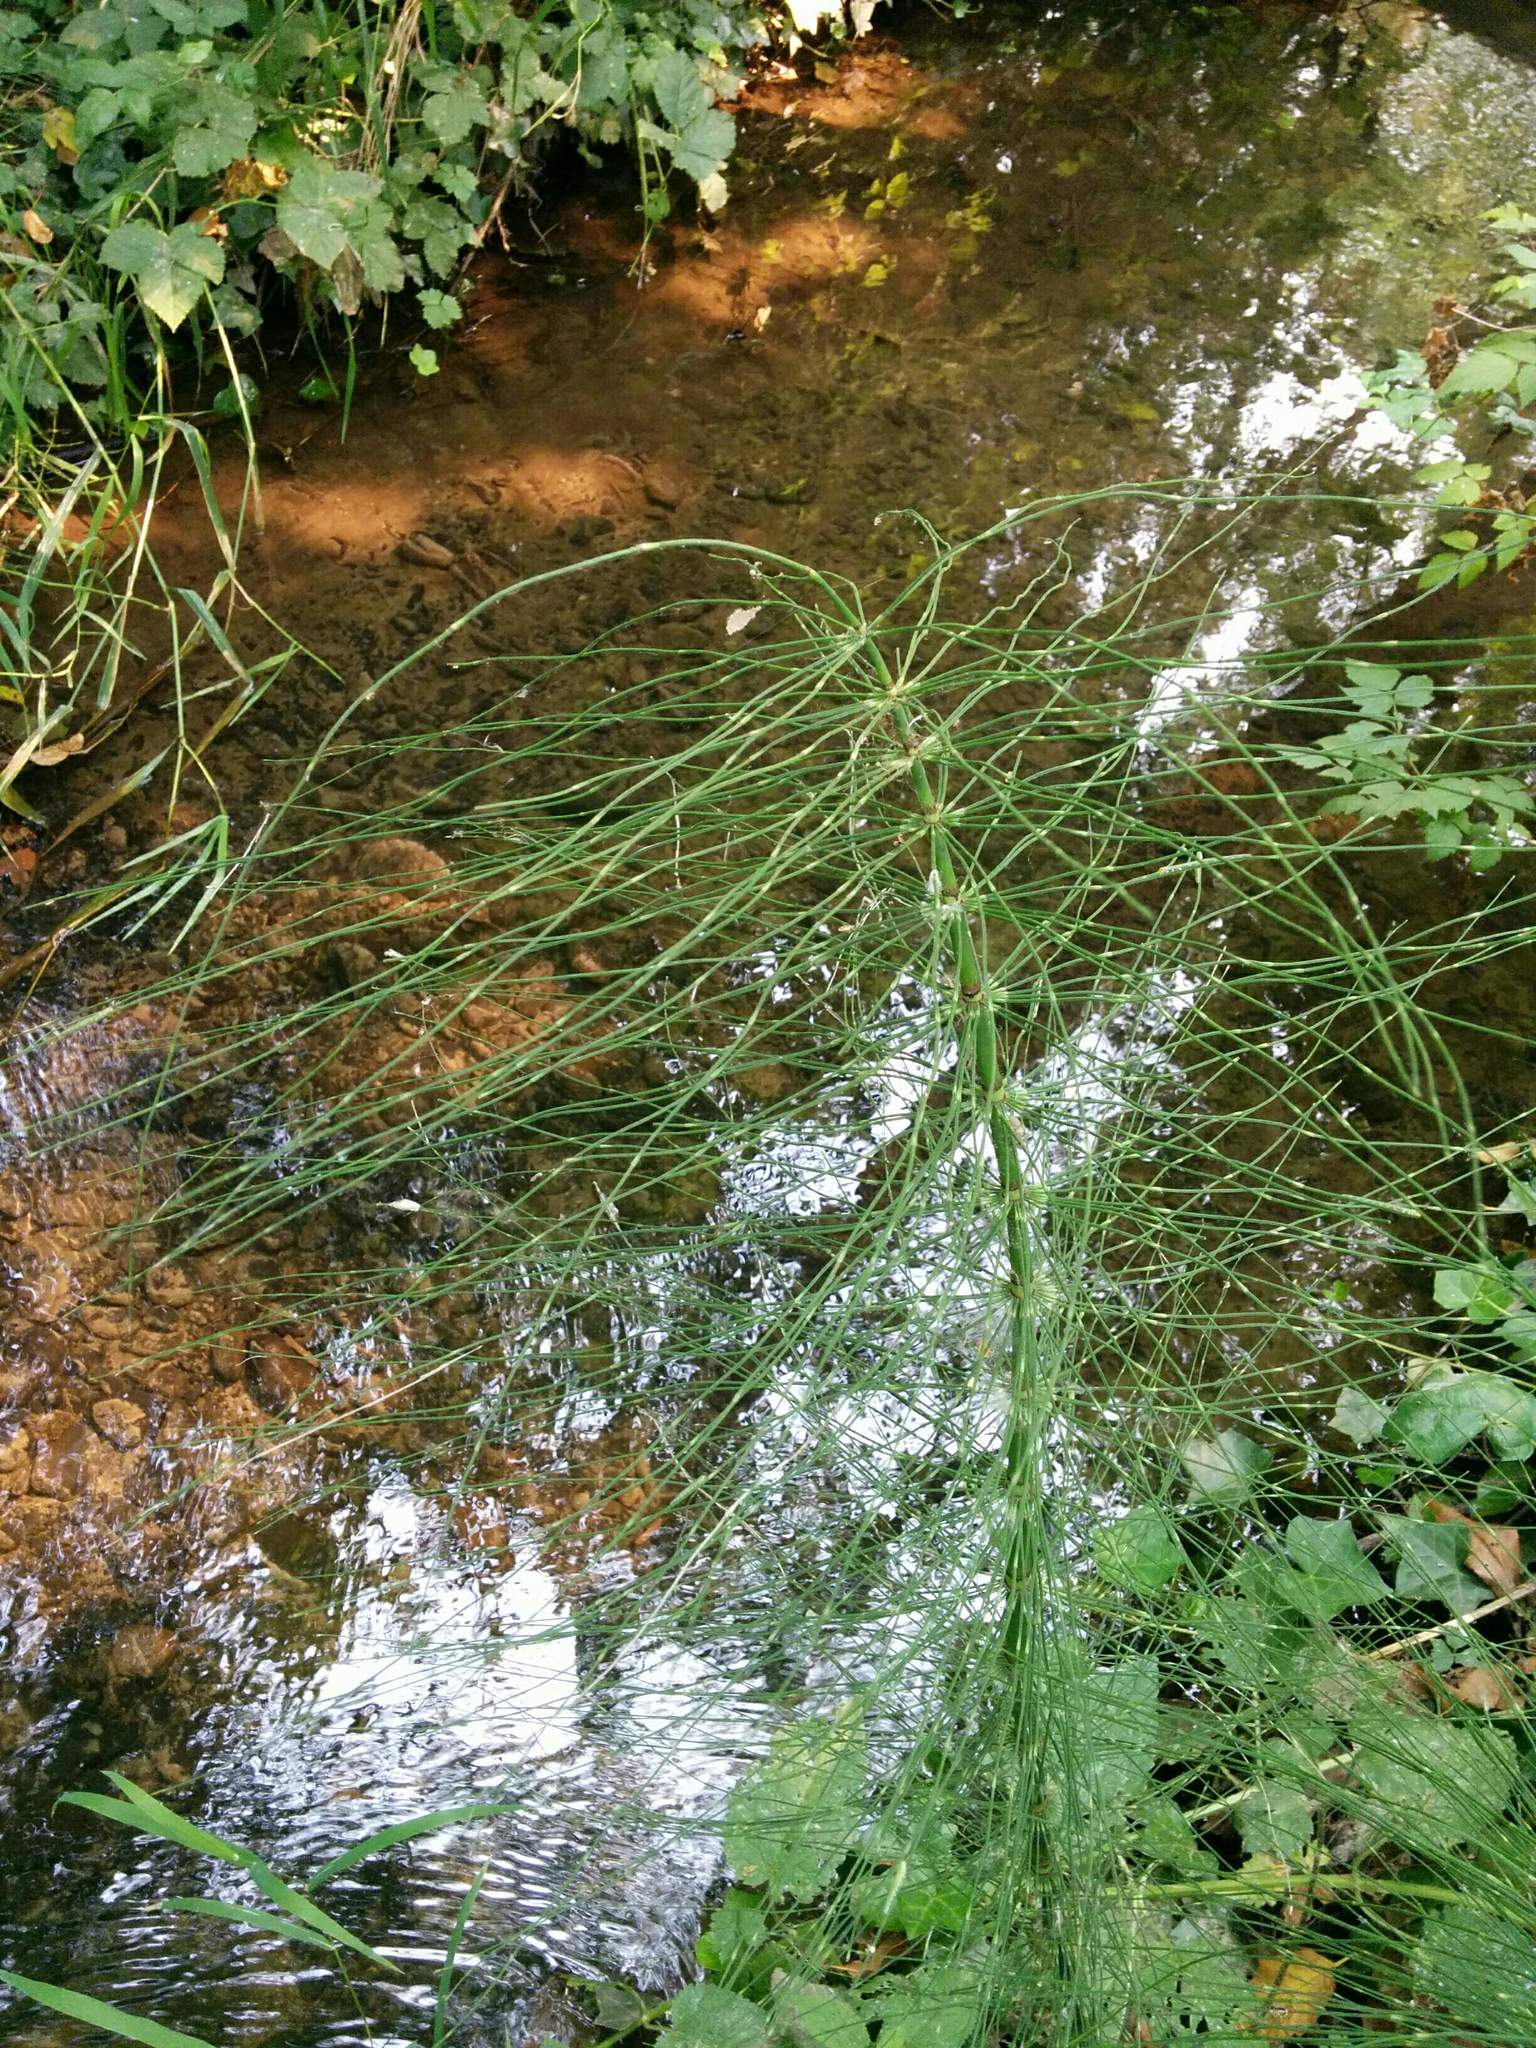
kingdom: Plantae
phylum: Tracheophyta
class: Polypodiopsida
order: Equisetales
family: Equisetaceae
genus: Equisetum
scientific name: Equisetum braunii
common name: Braun's horsetail
